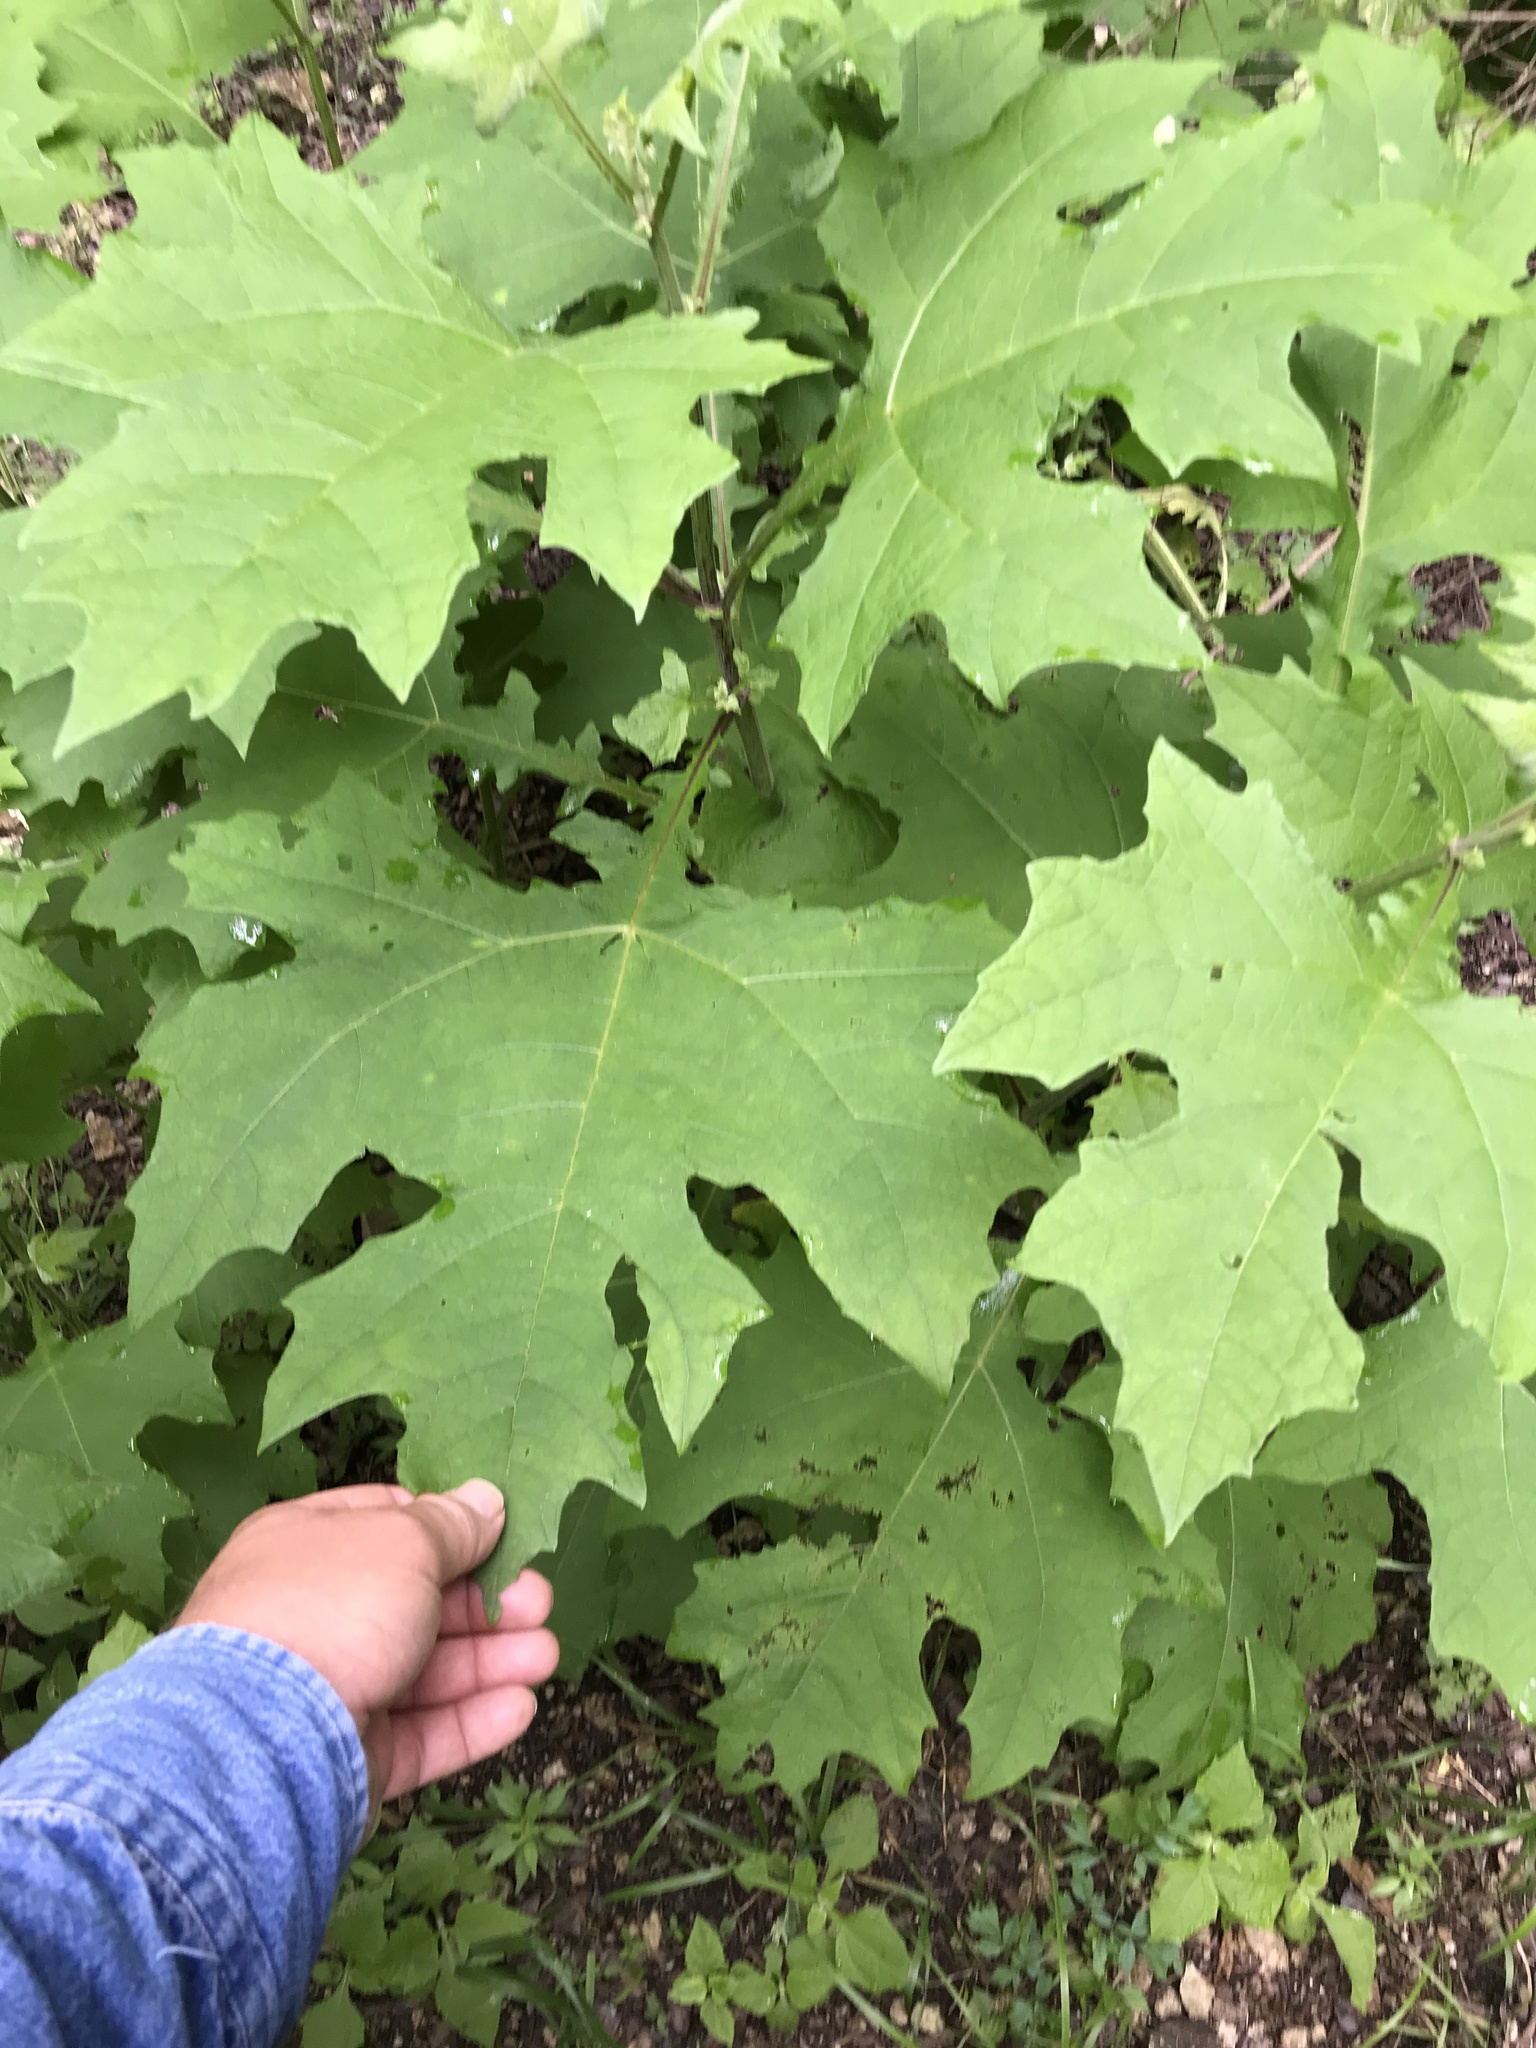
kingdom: Plantae
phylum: Tracheophyta
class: Magnoliopsida
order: Asterales
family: Asteraceae
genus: Smallanthus
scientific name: Smallanthus uvedalia
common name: Bear's-foot
